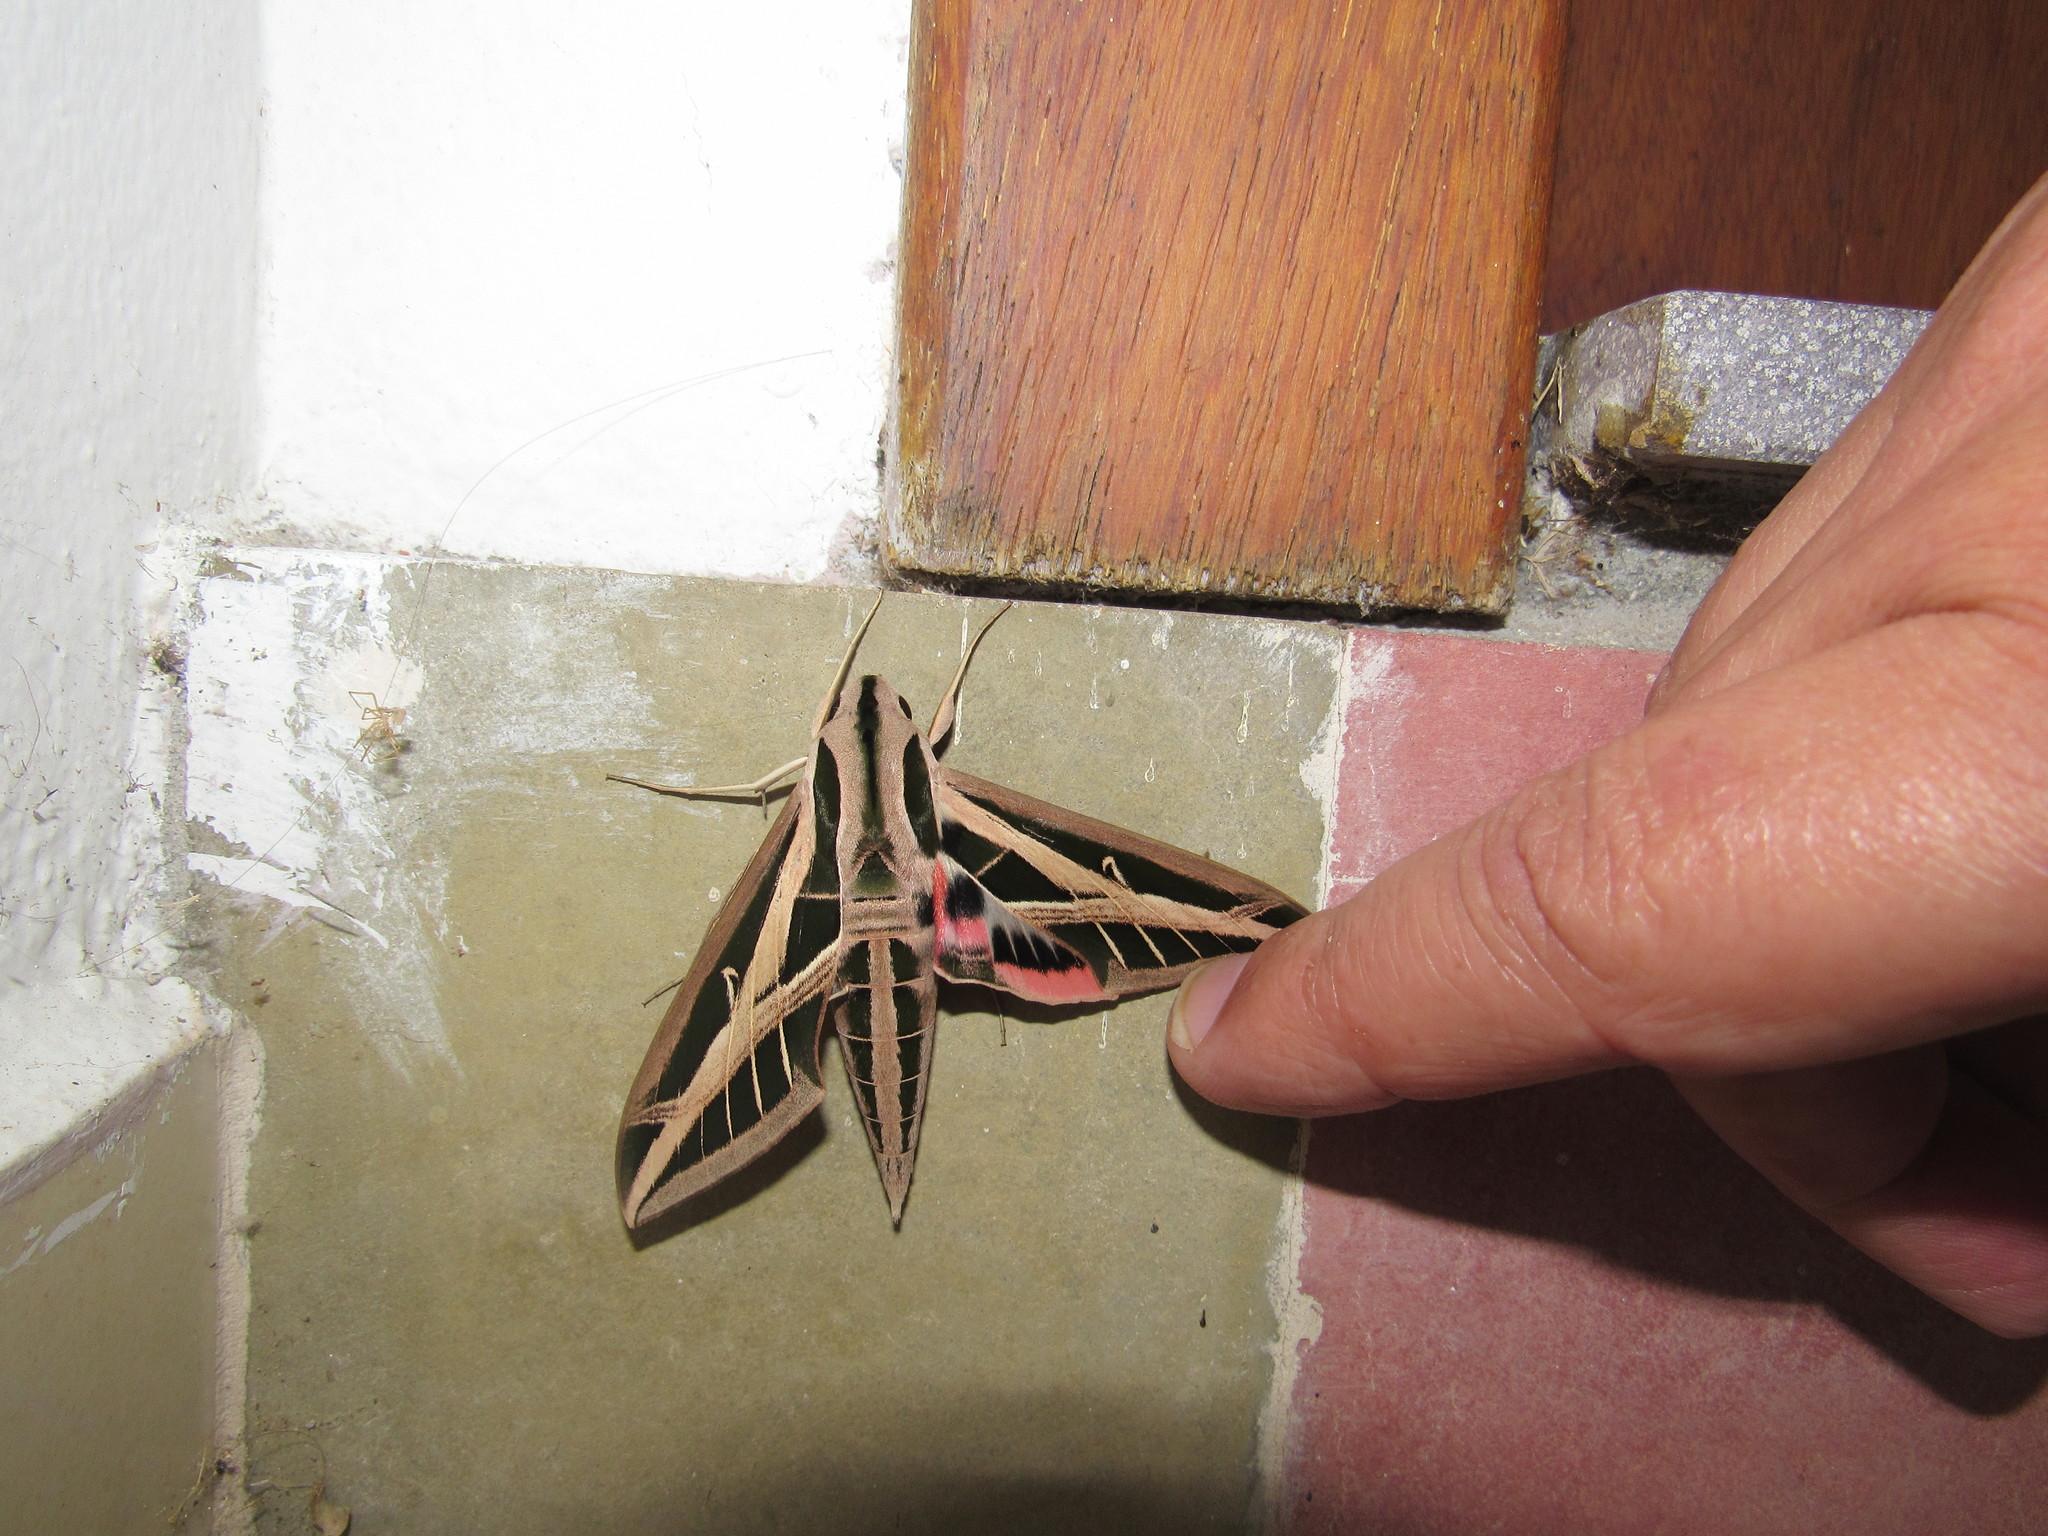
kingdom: Animalia
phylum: Arthropoda
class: Insecta
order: Lepidoptera
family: Sphingidae
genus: Eumorpha
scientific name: Eumorpha fasciatus
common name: Banded sphinx
